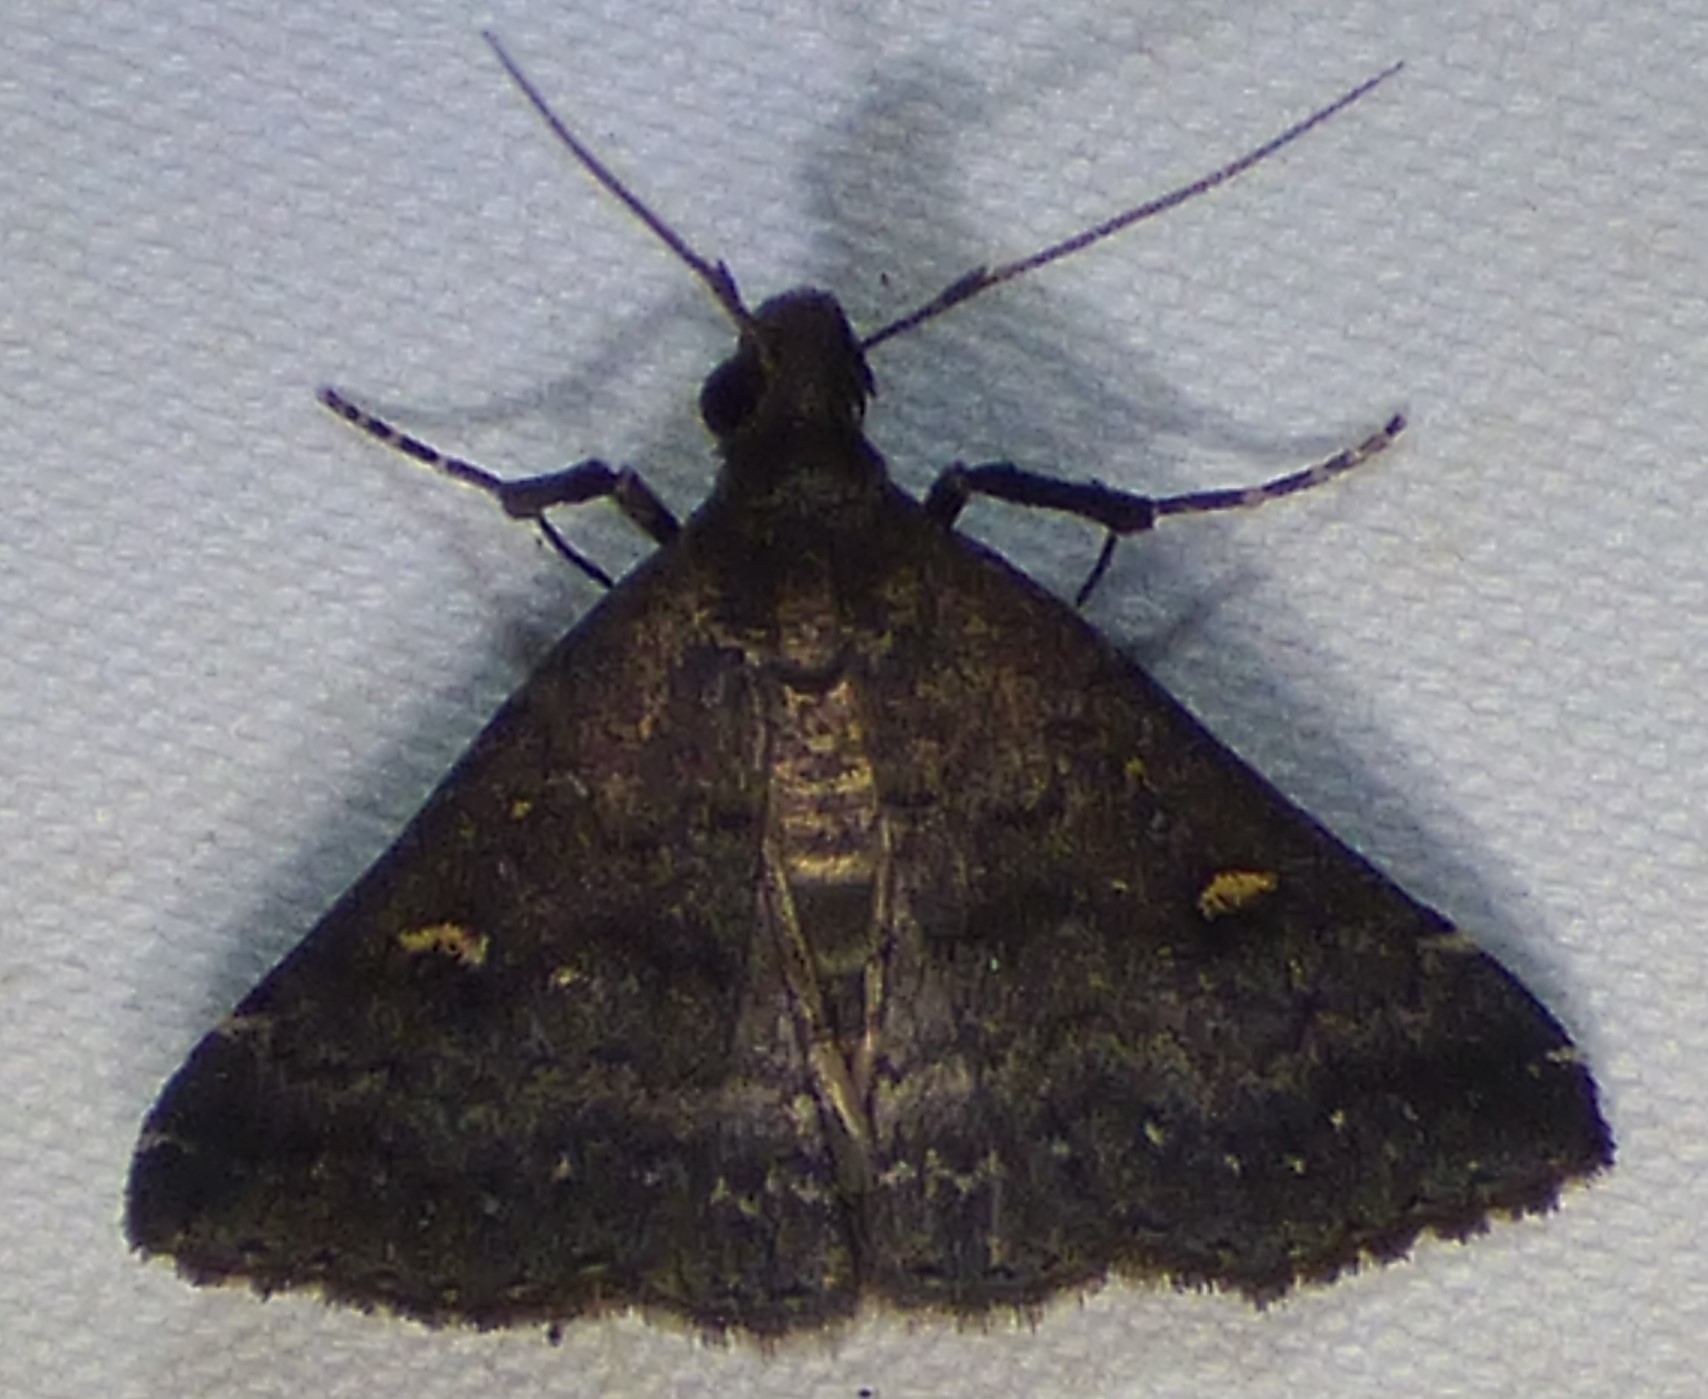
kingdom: Animalia
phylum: Arthropoda
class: Insecta
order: Lepidoptera
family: Erebidae
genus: Tetanolita
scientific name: Tetanolita mynesalis
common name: Smoky tetanolita moth
